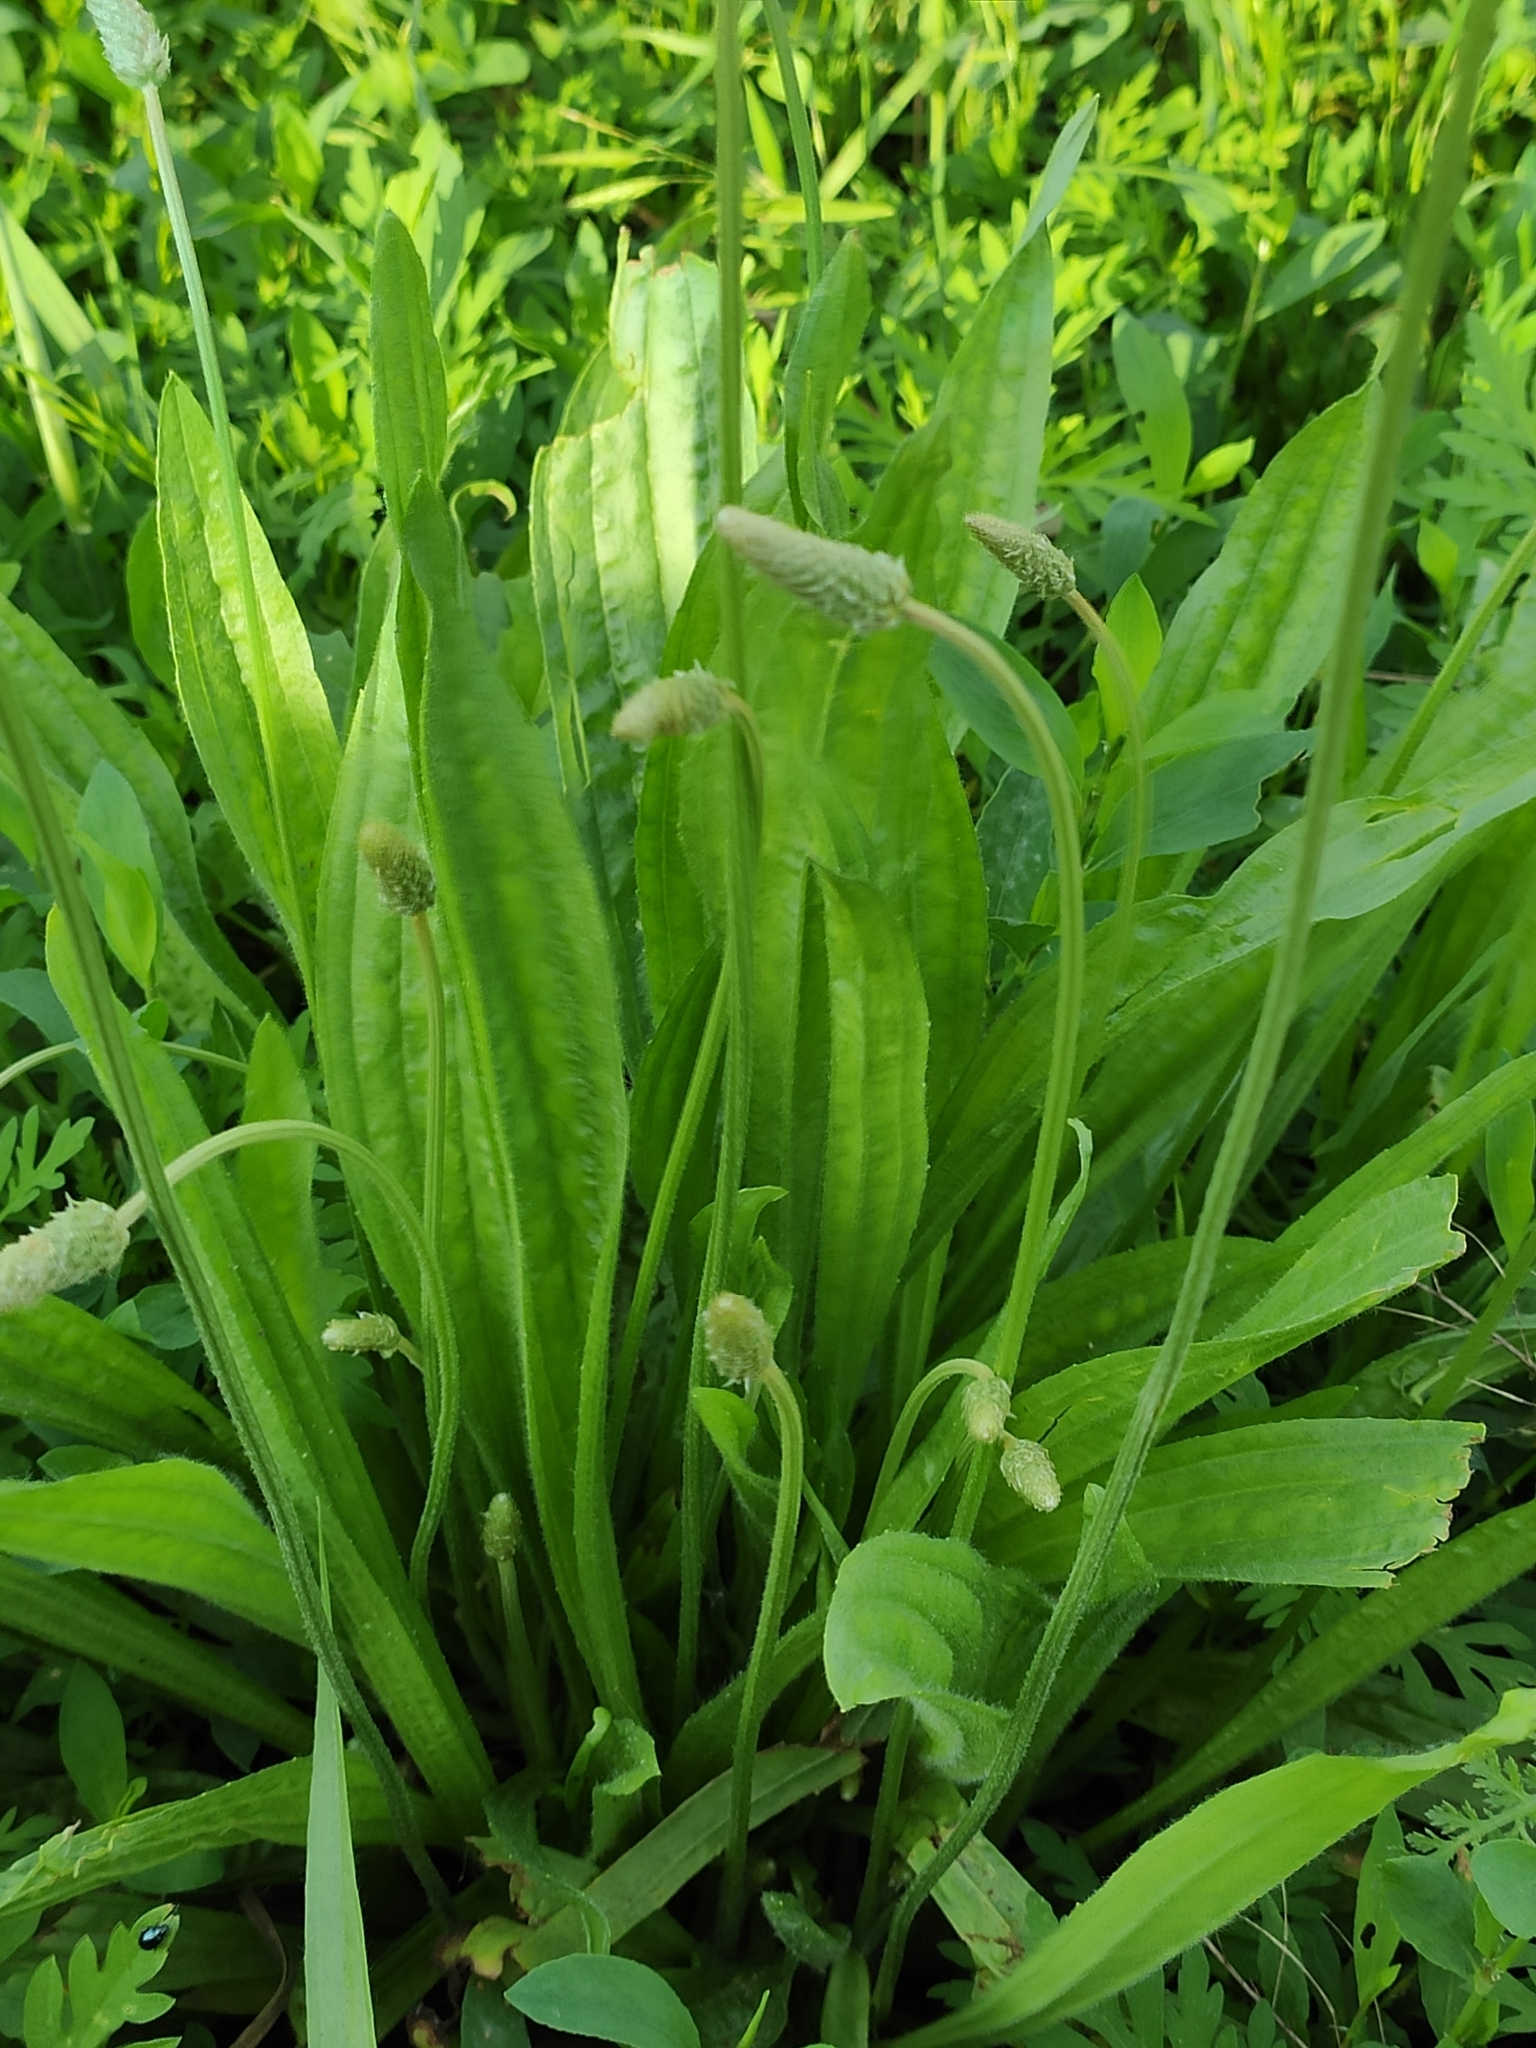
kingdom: Plantae
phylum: Tracheophyta
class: Magnoliopsida
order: Lamiales
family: Plantaginaceae
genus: Plantago
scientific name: Plantago lanceolata
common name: Ribwort plantain
